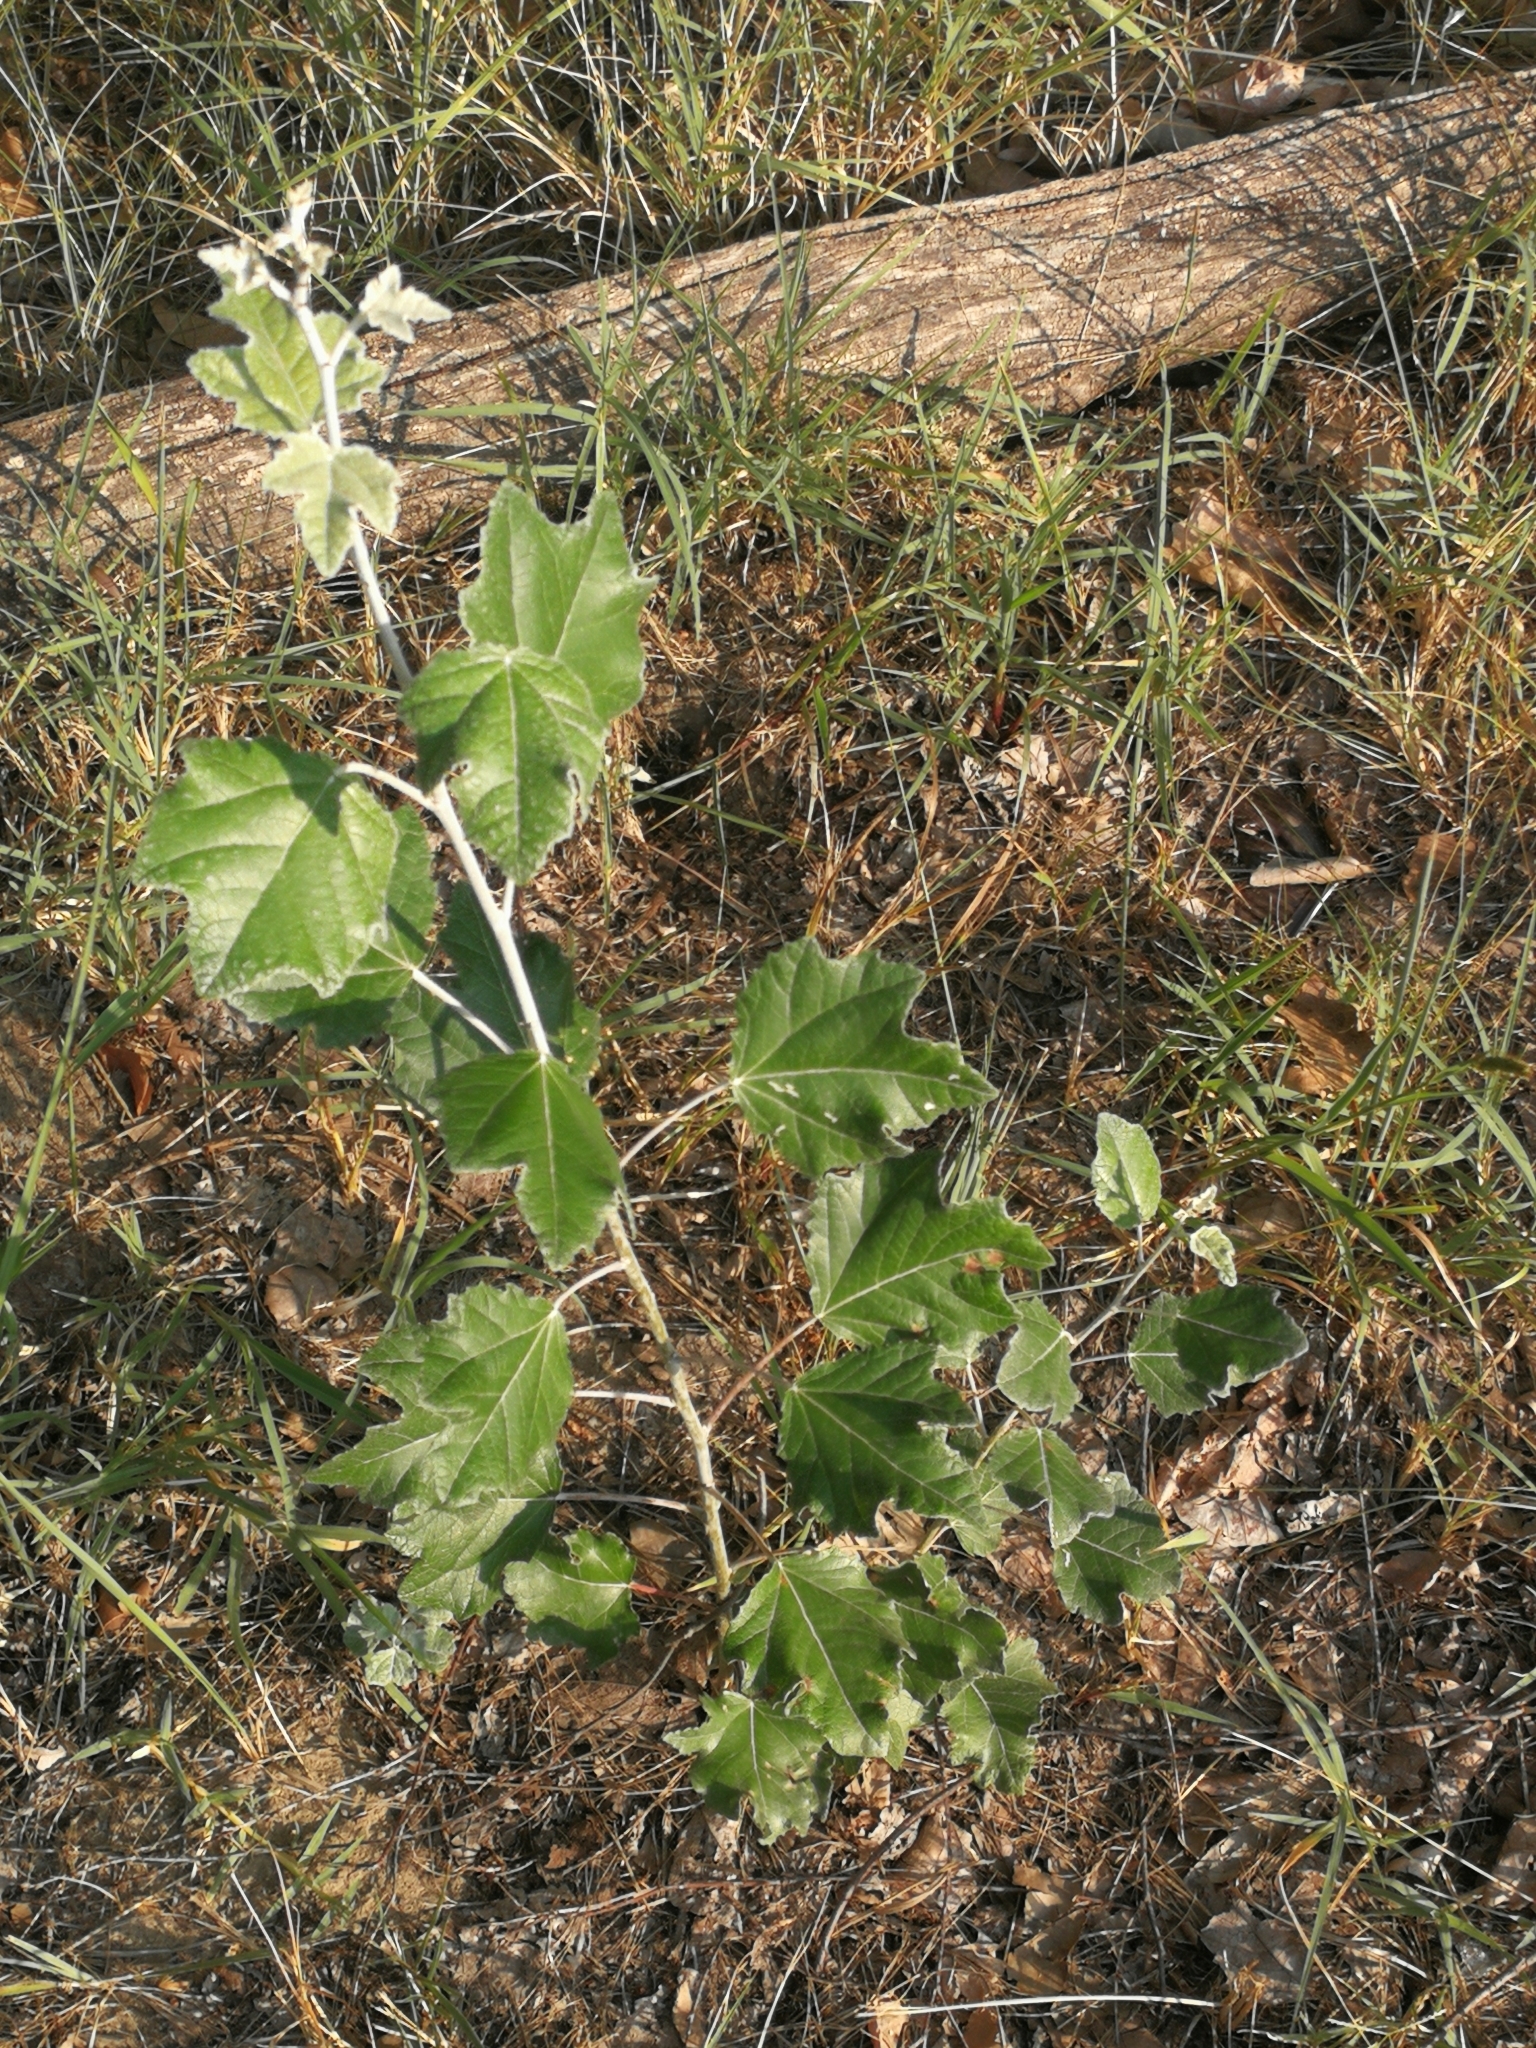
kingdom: Plantae
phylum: Tracheophyta
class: Magnoliopsida
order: Malpighiales
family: Salicaceae
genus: Populus
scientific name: Populus alba
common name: White poplar
